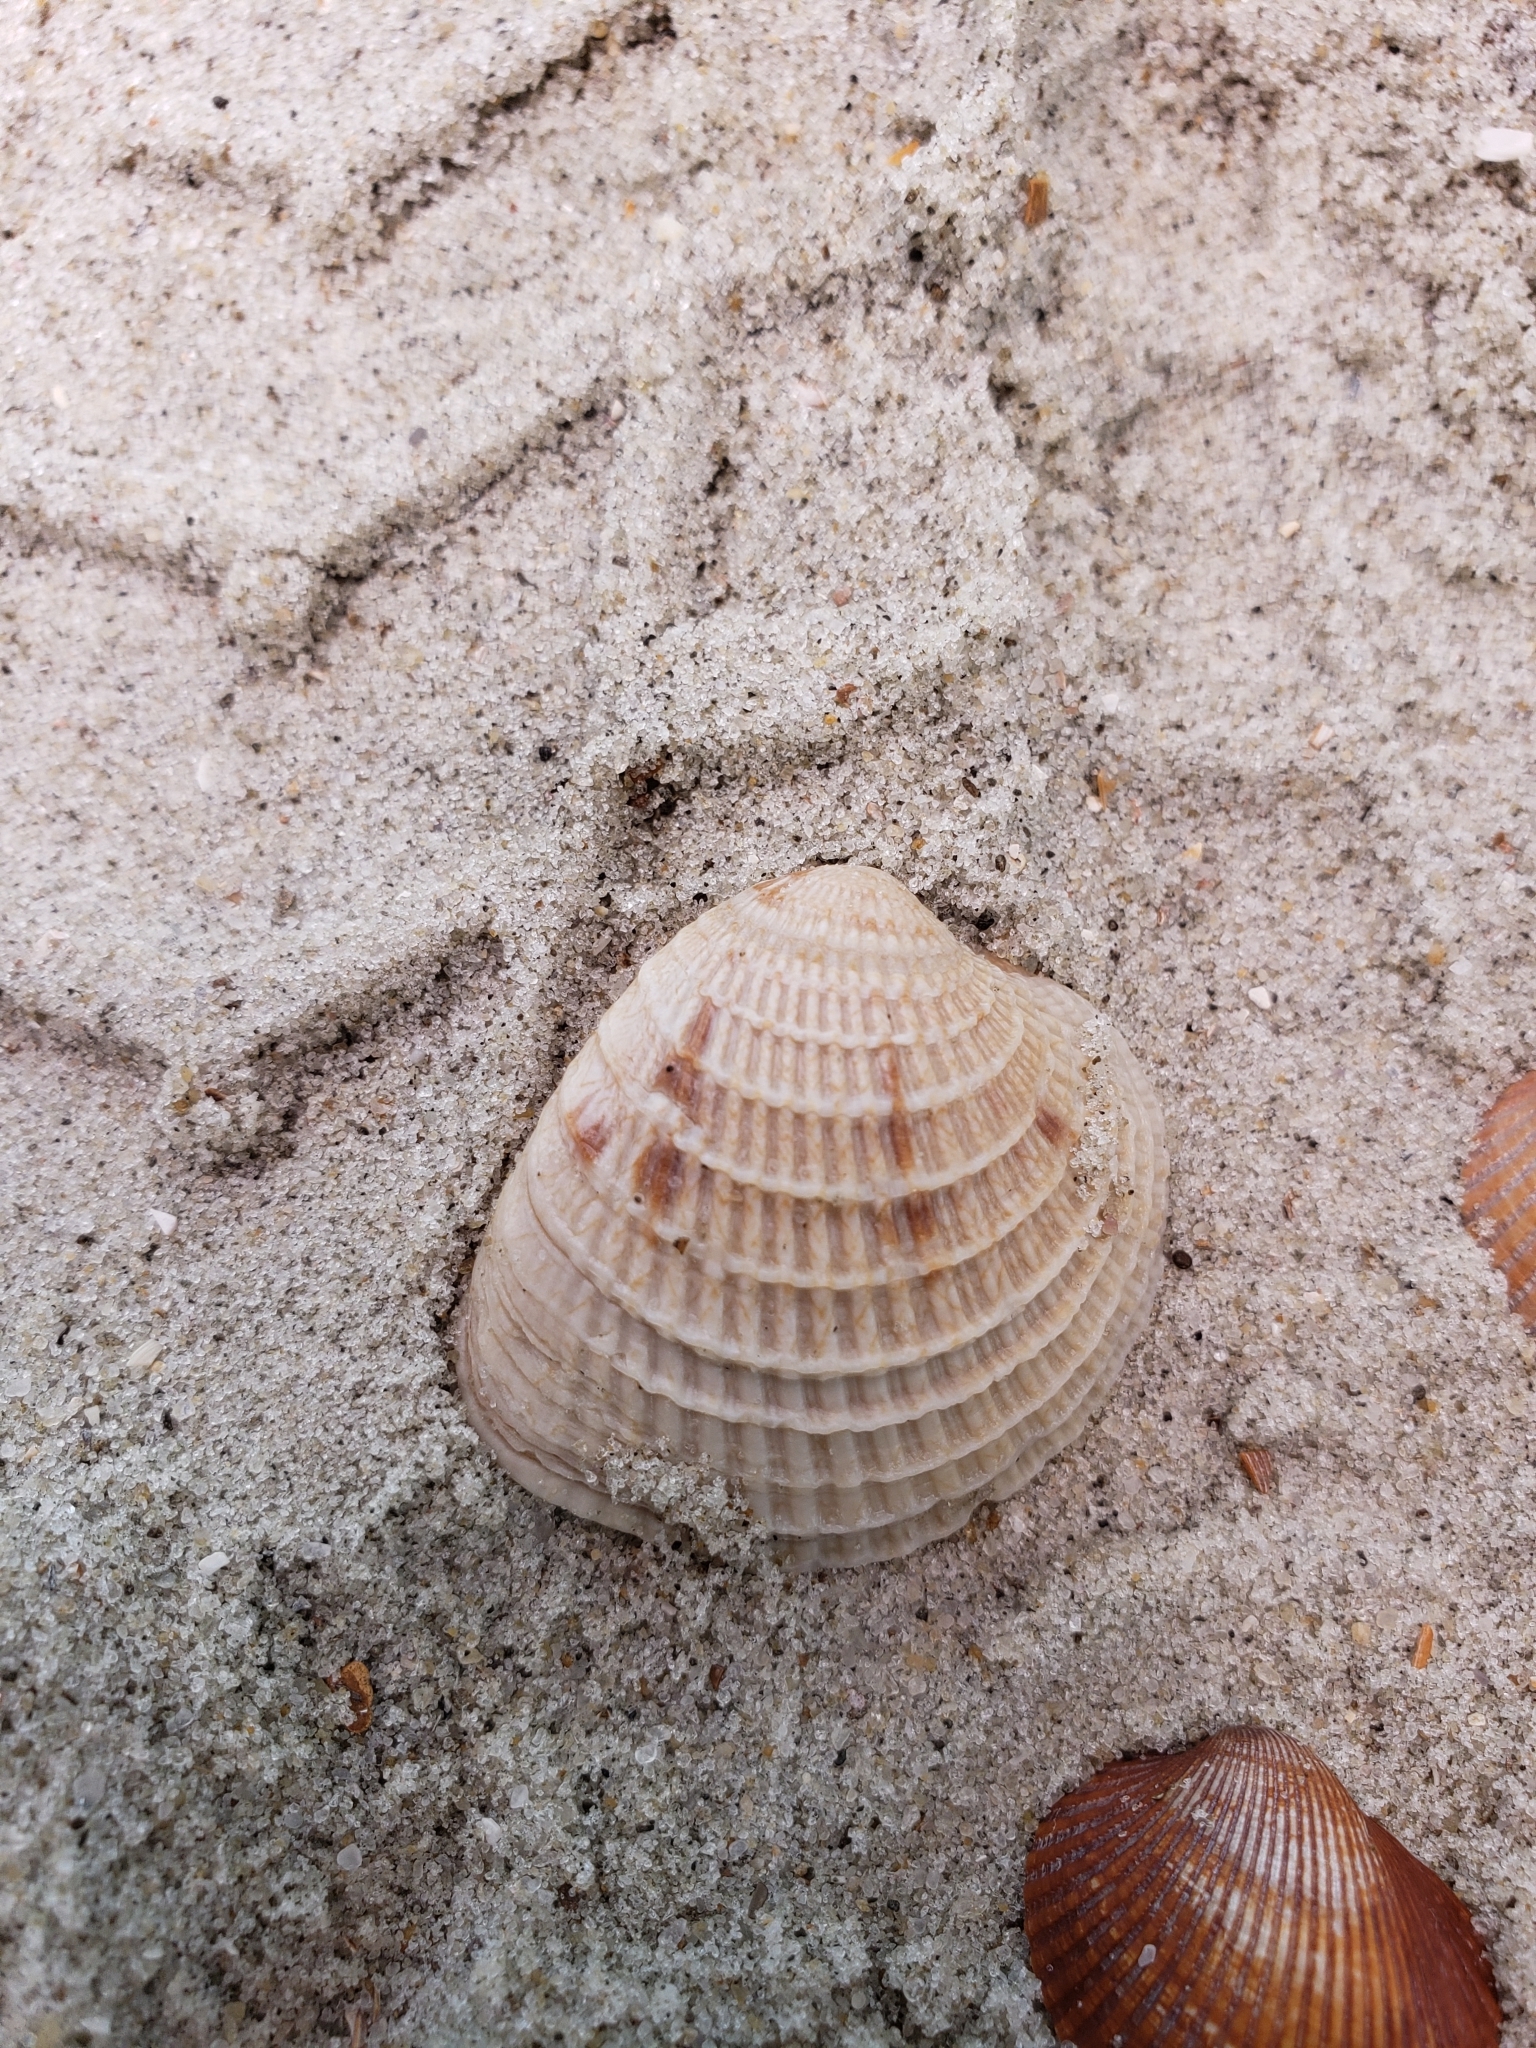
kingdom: Animalia
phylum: Mollusca
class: Bivalvia
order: Venerida
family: Veneridae
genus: Chione
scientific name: Chione elevata
